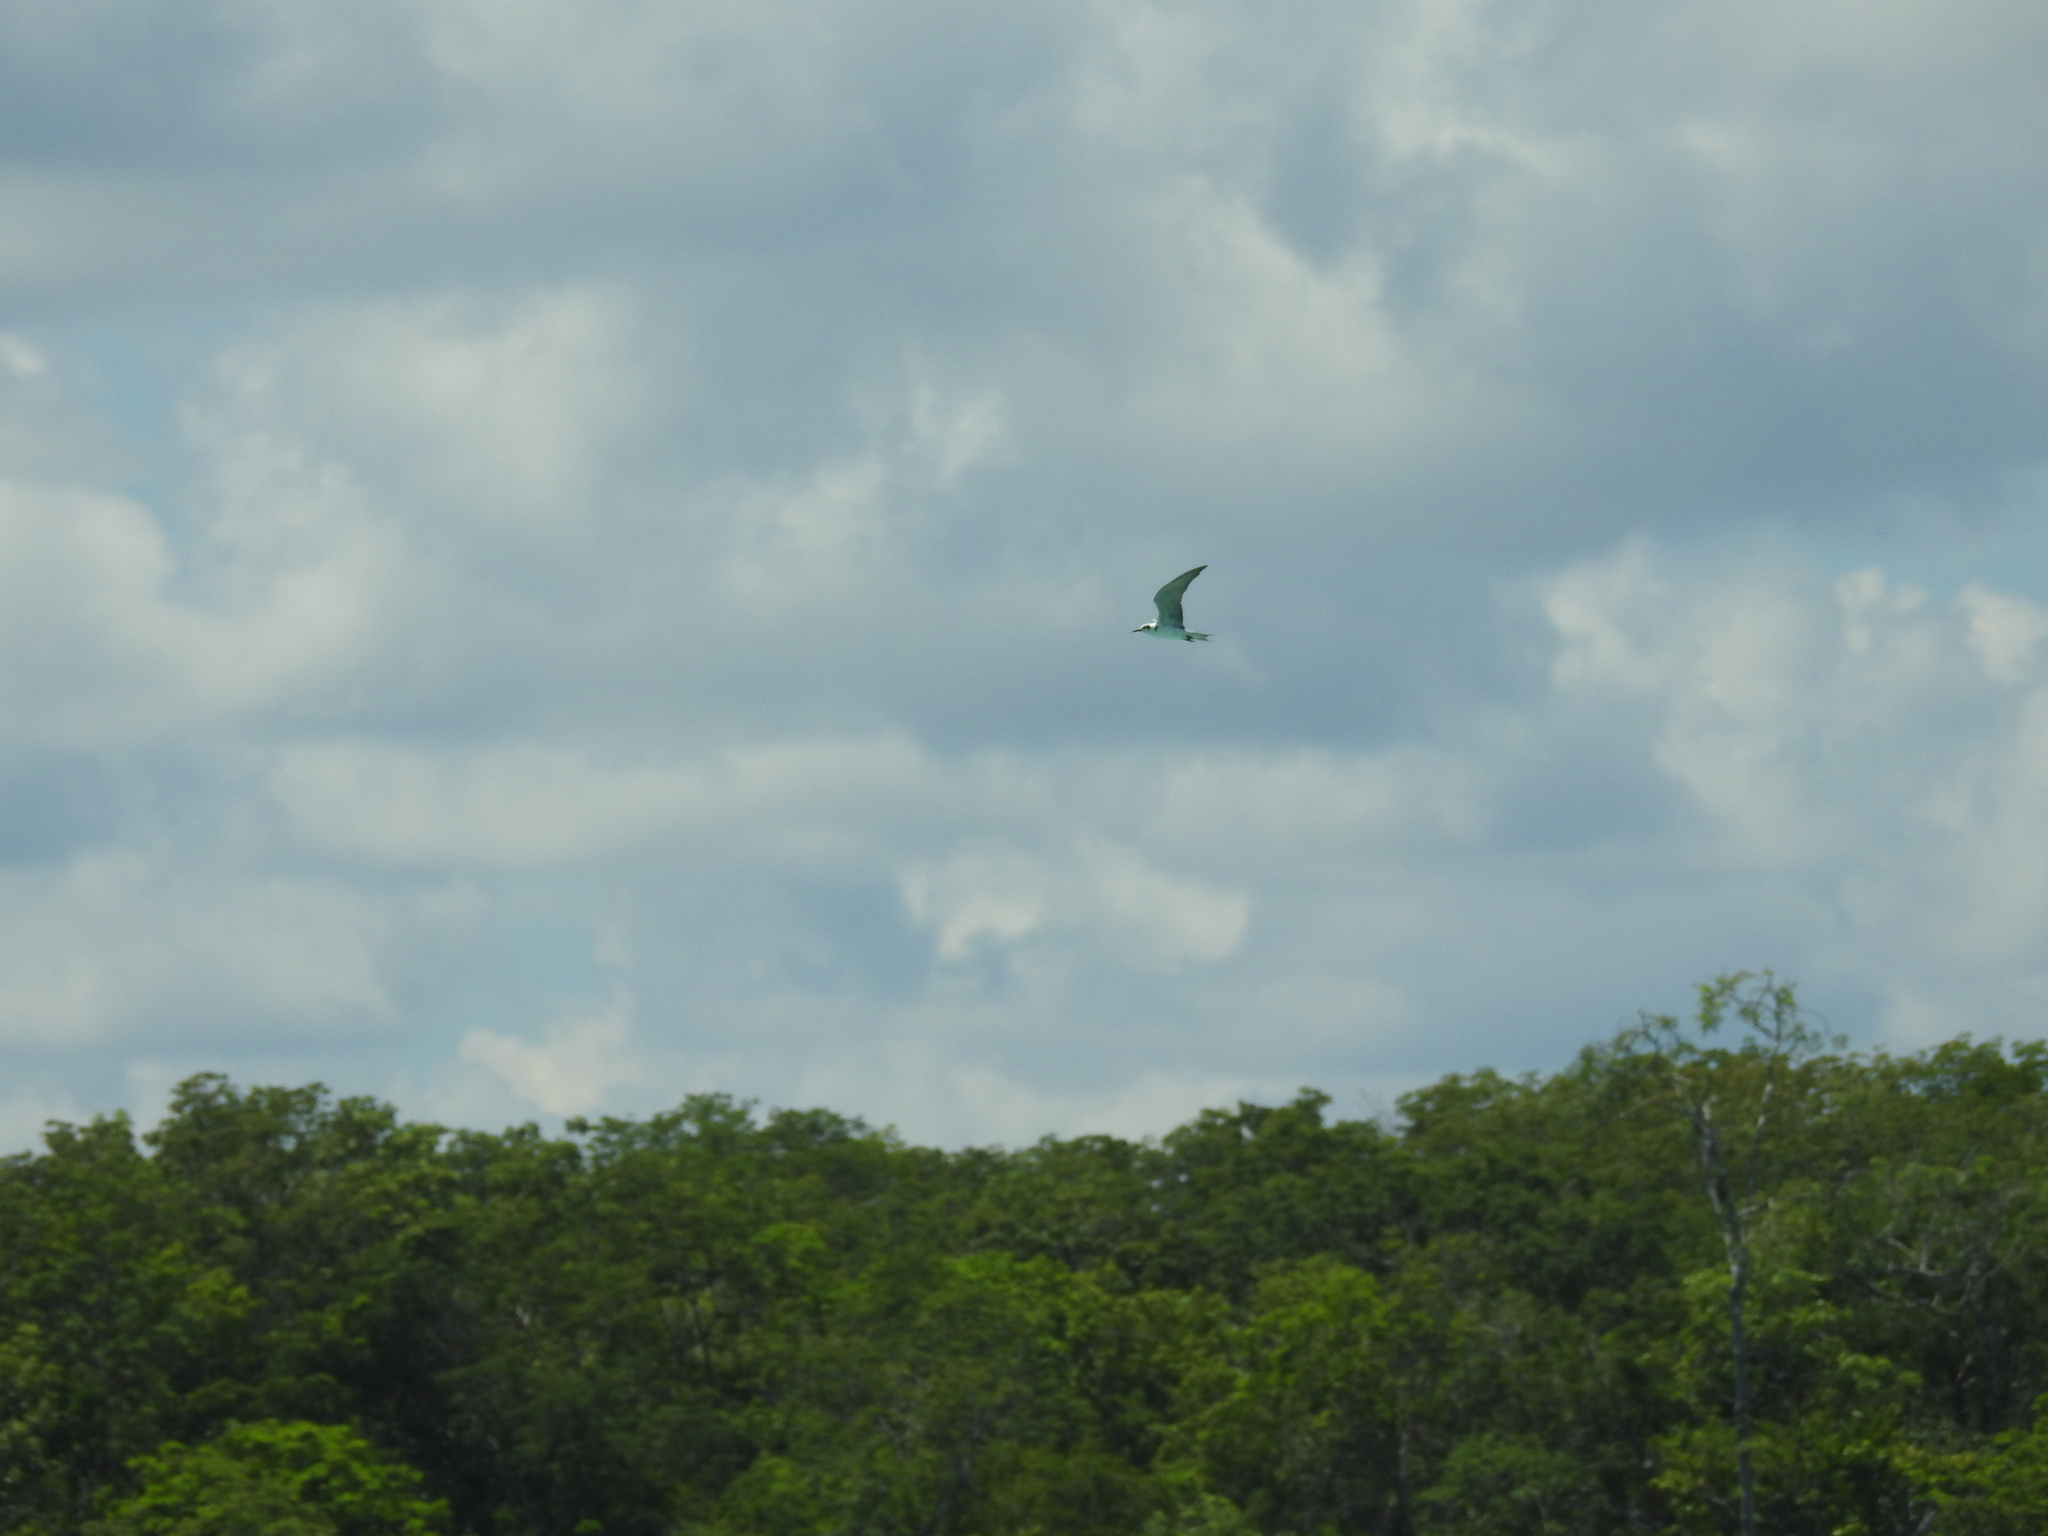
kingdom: Animalia
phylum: Chordata
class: Aves
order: Charadriiformes
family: Laridae
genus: Chlidonias
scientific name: Chlidonias niger
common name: Black tern
